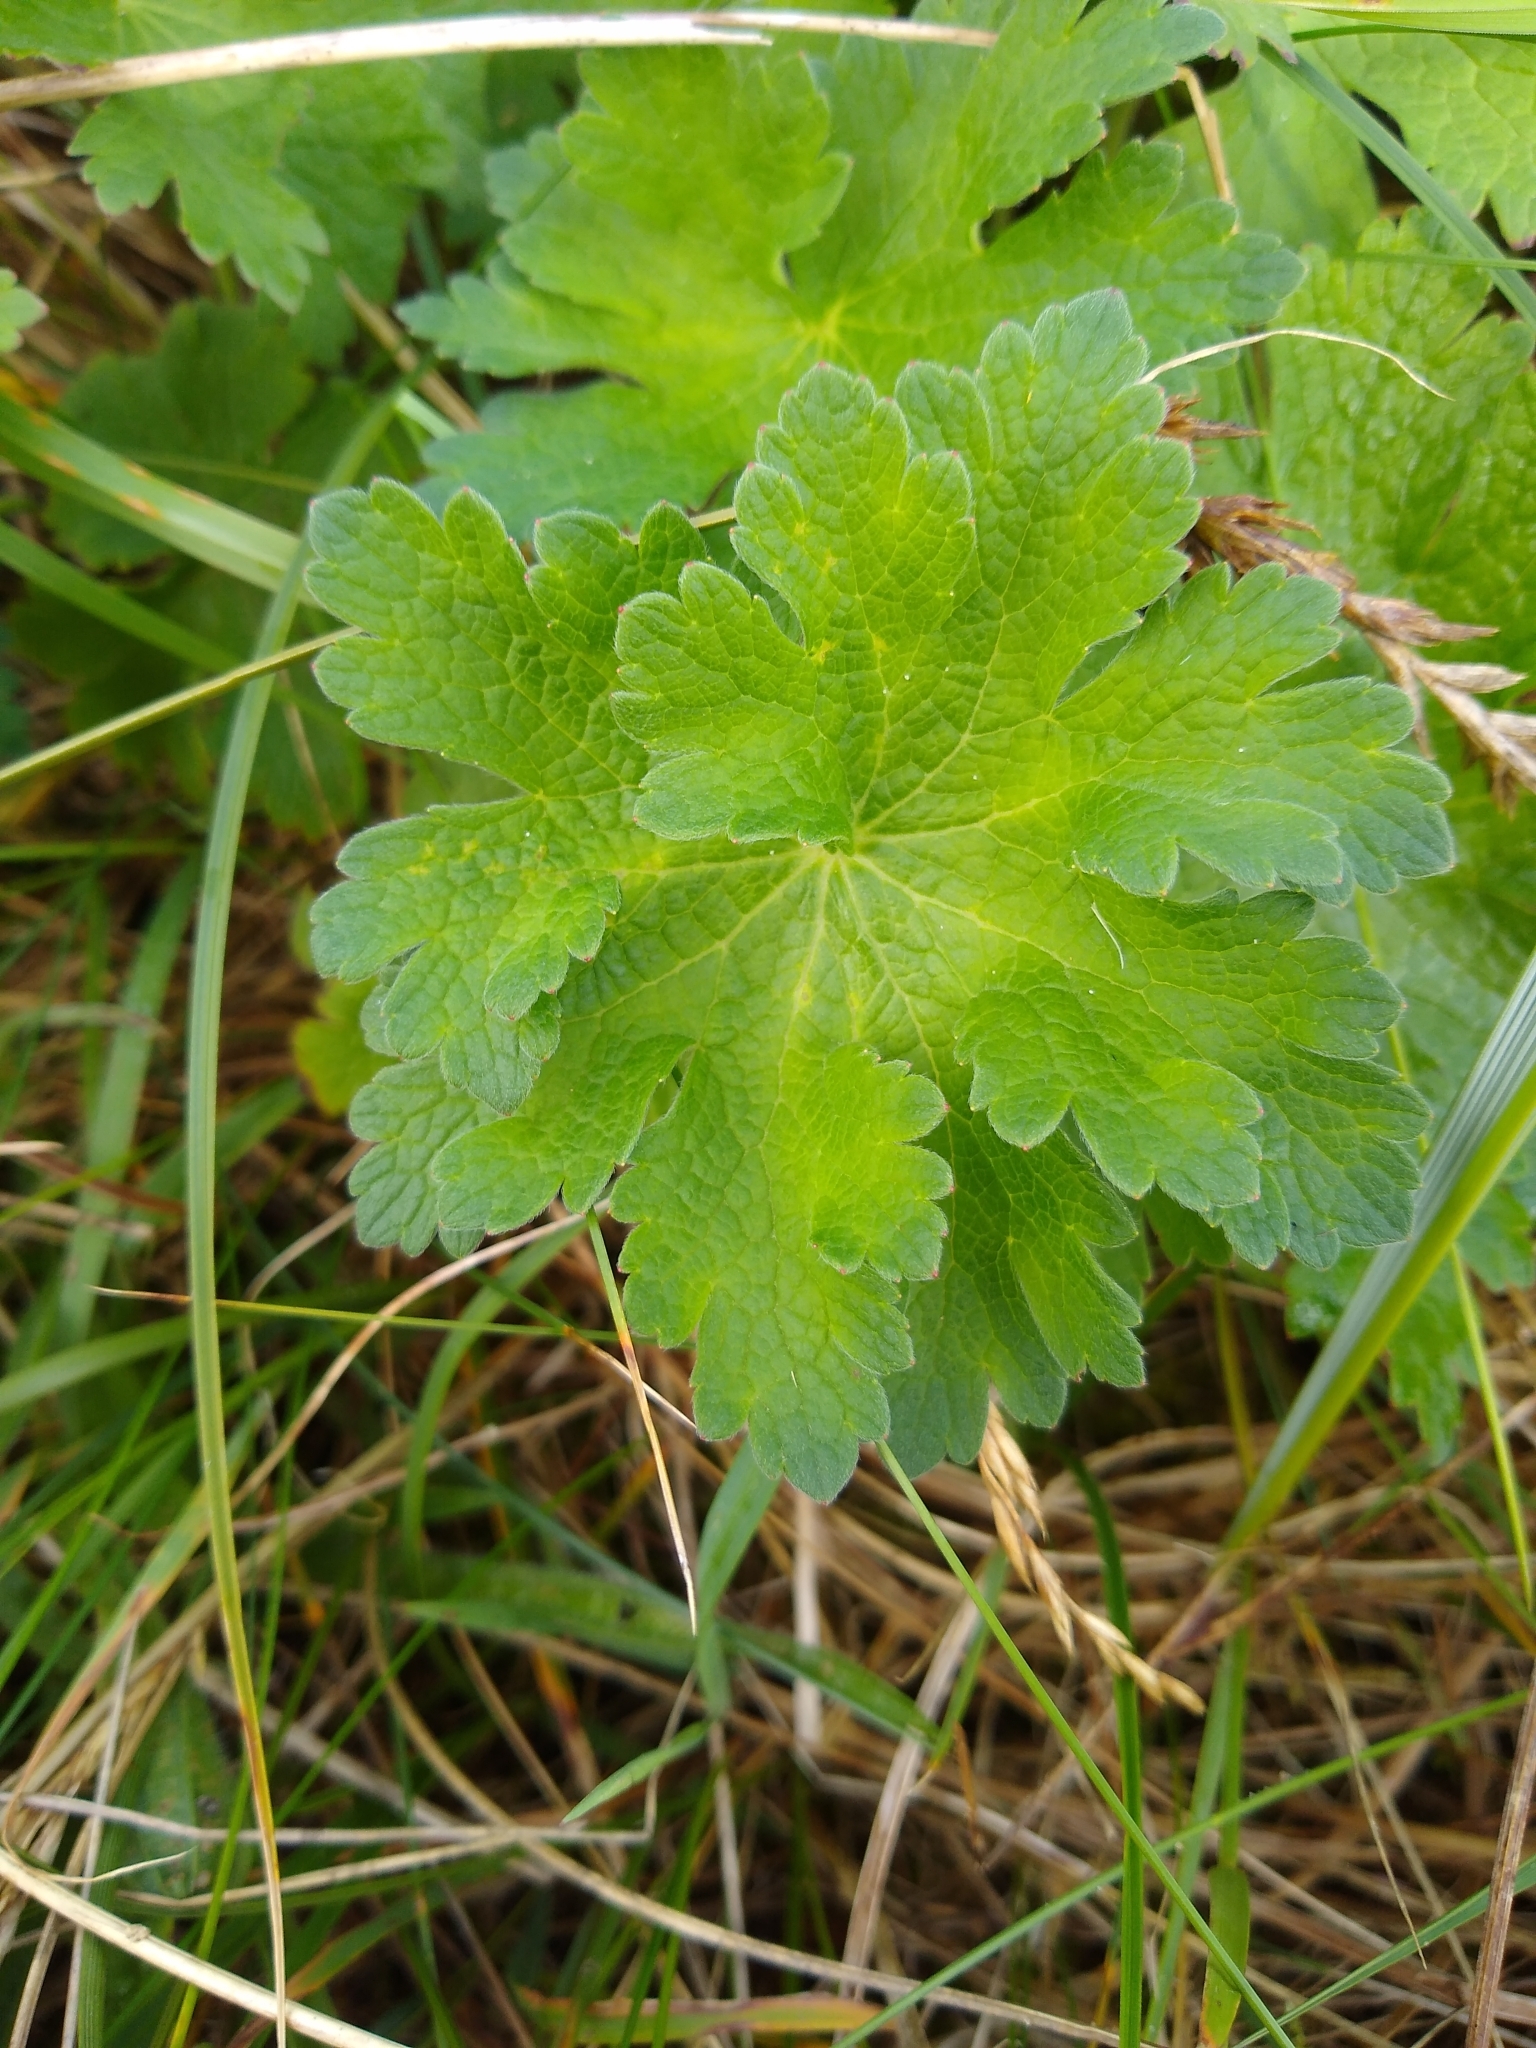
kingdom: Plantae
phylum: Tracheophyta
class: Magnoliopsida
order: Geraniales
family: Geraniaceae
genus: Geranium
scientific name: Geranium magnificum
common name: Purple crane's-bill
